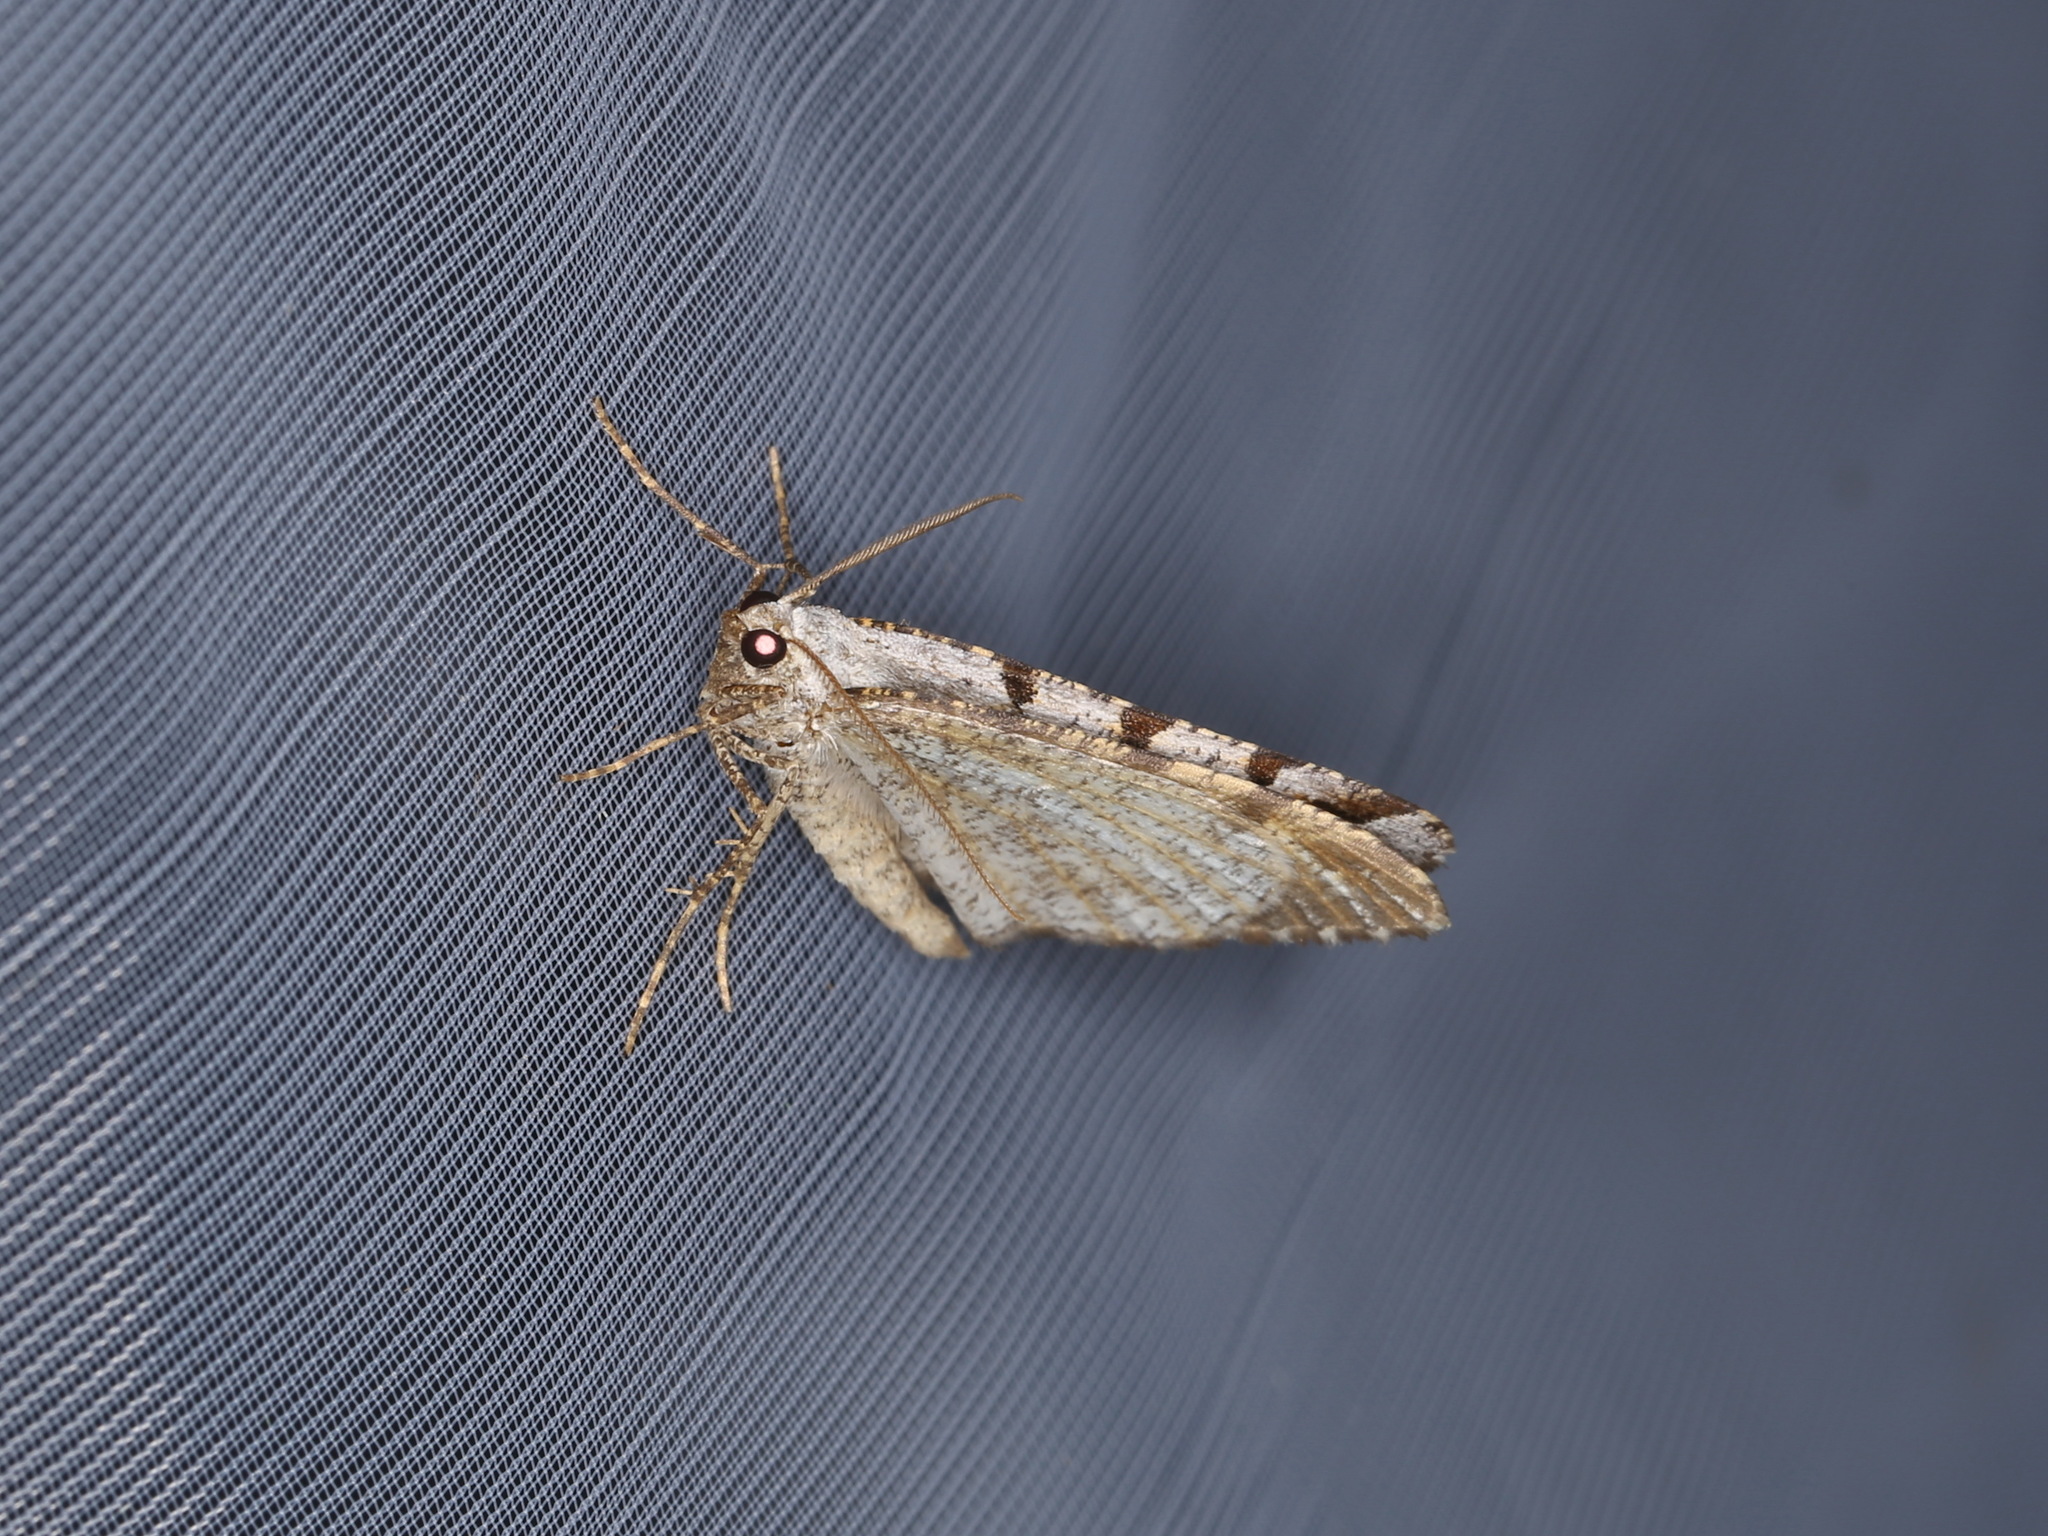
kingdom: Animalia
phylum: Arthropoda
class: Insecta
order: Lepidoptera
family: Geometridae
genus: Macaria
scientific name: Macaria wauaria
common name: V-moth
